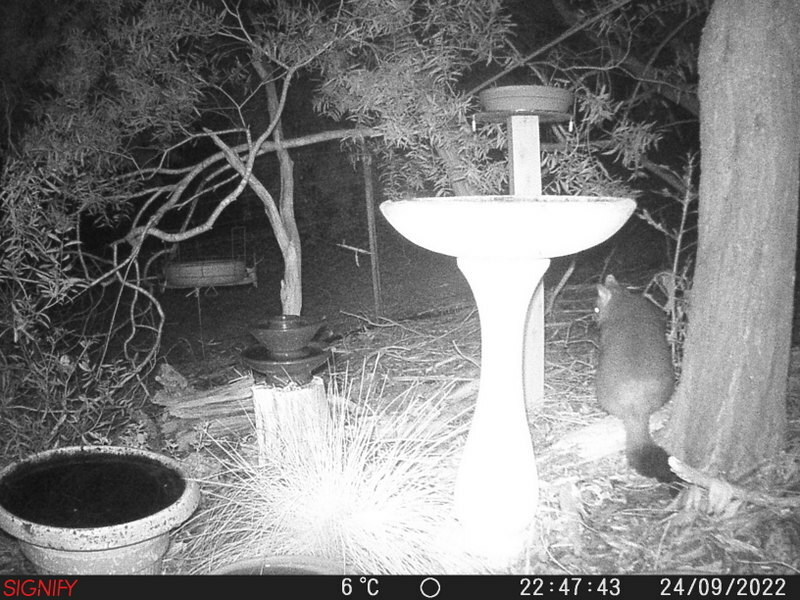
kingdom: Animalia
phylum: Chordata
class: Mammalia
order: Diprotodontia
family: Phalangeridae
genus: Trichosurus
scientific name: Trichosurus vulpecula
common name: Common brushtail
